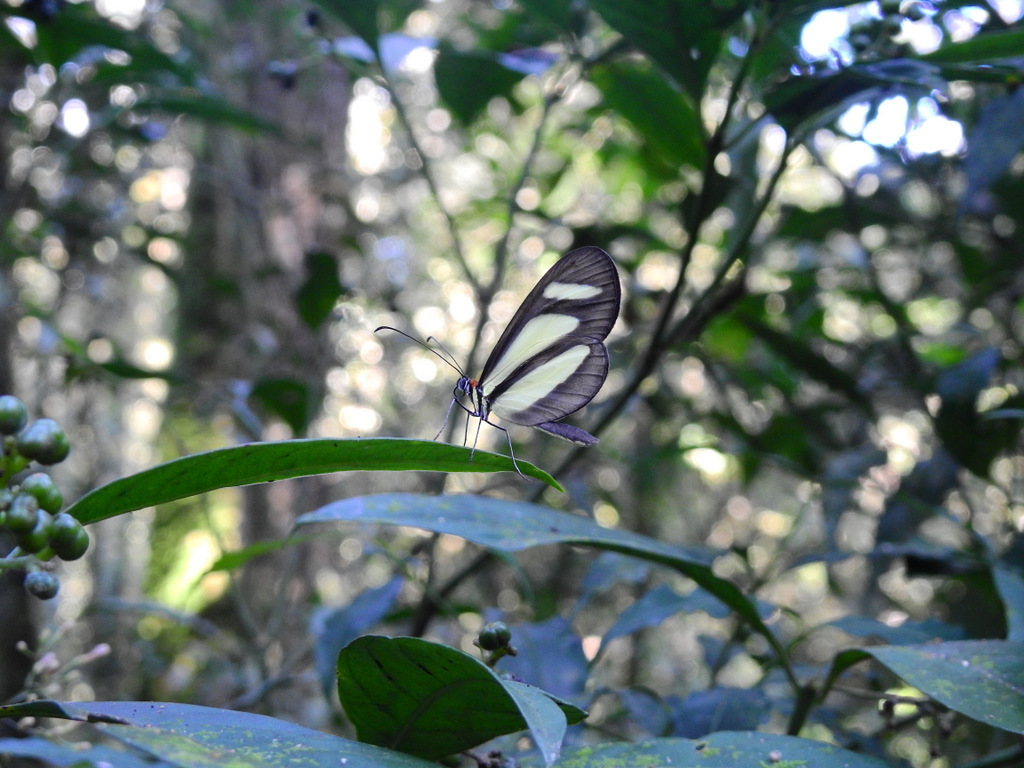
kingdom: Animalia
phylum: Arthropoda
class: Insecta
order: Lepidoptera
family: Nymphalidae
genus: Aeria
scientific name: Aeria olena
